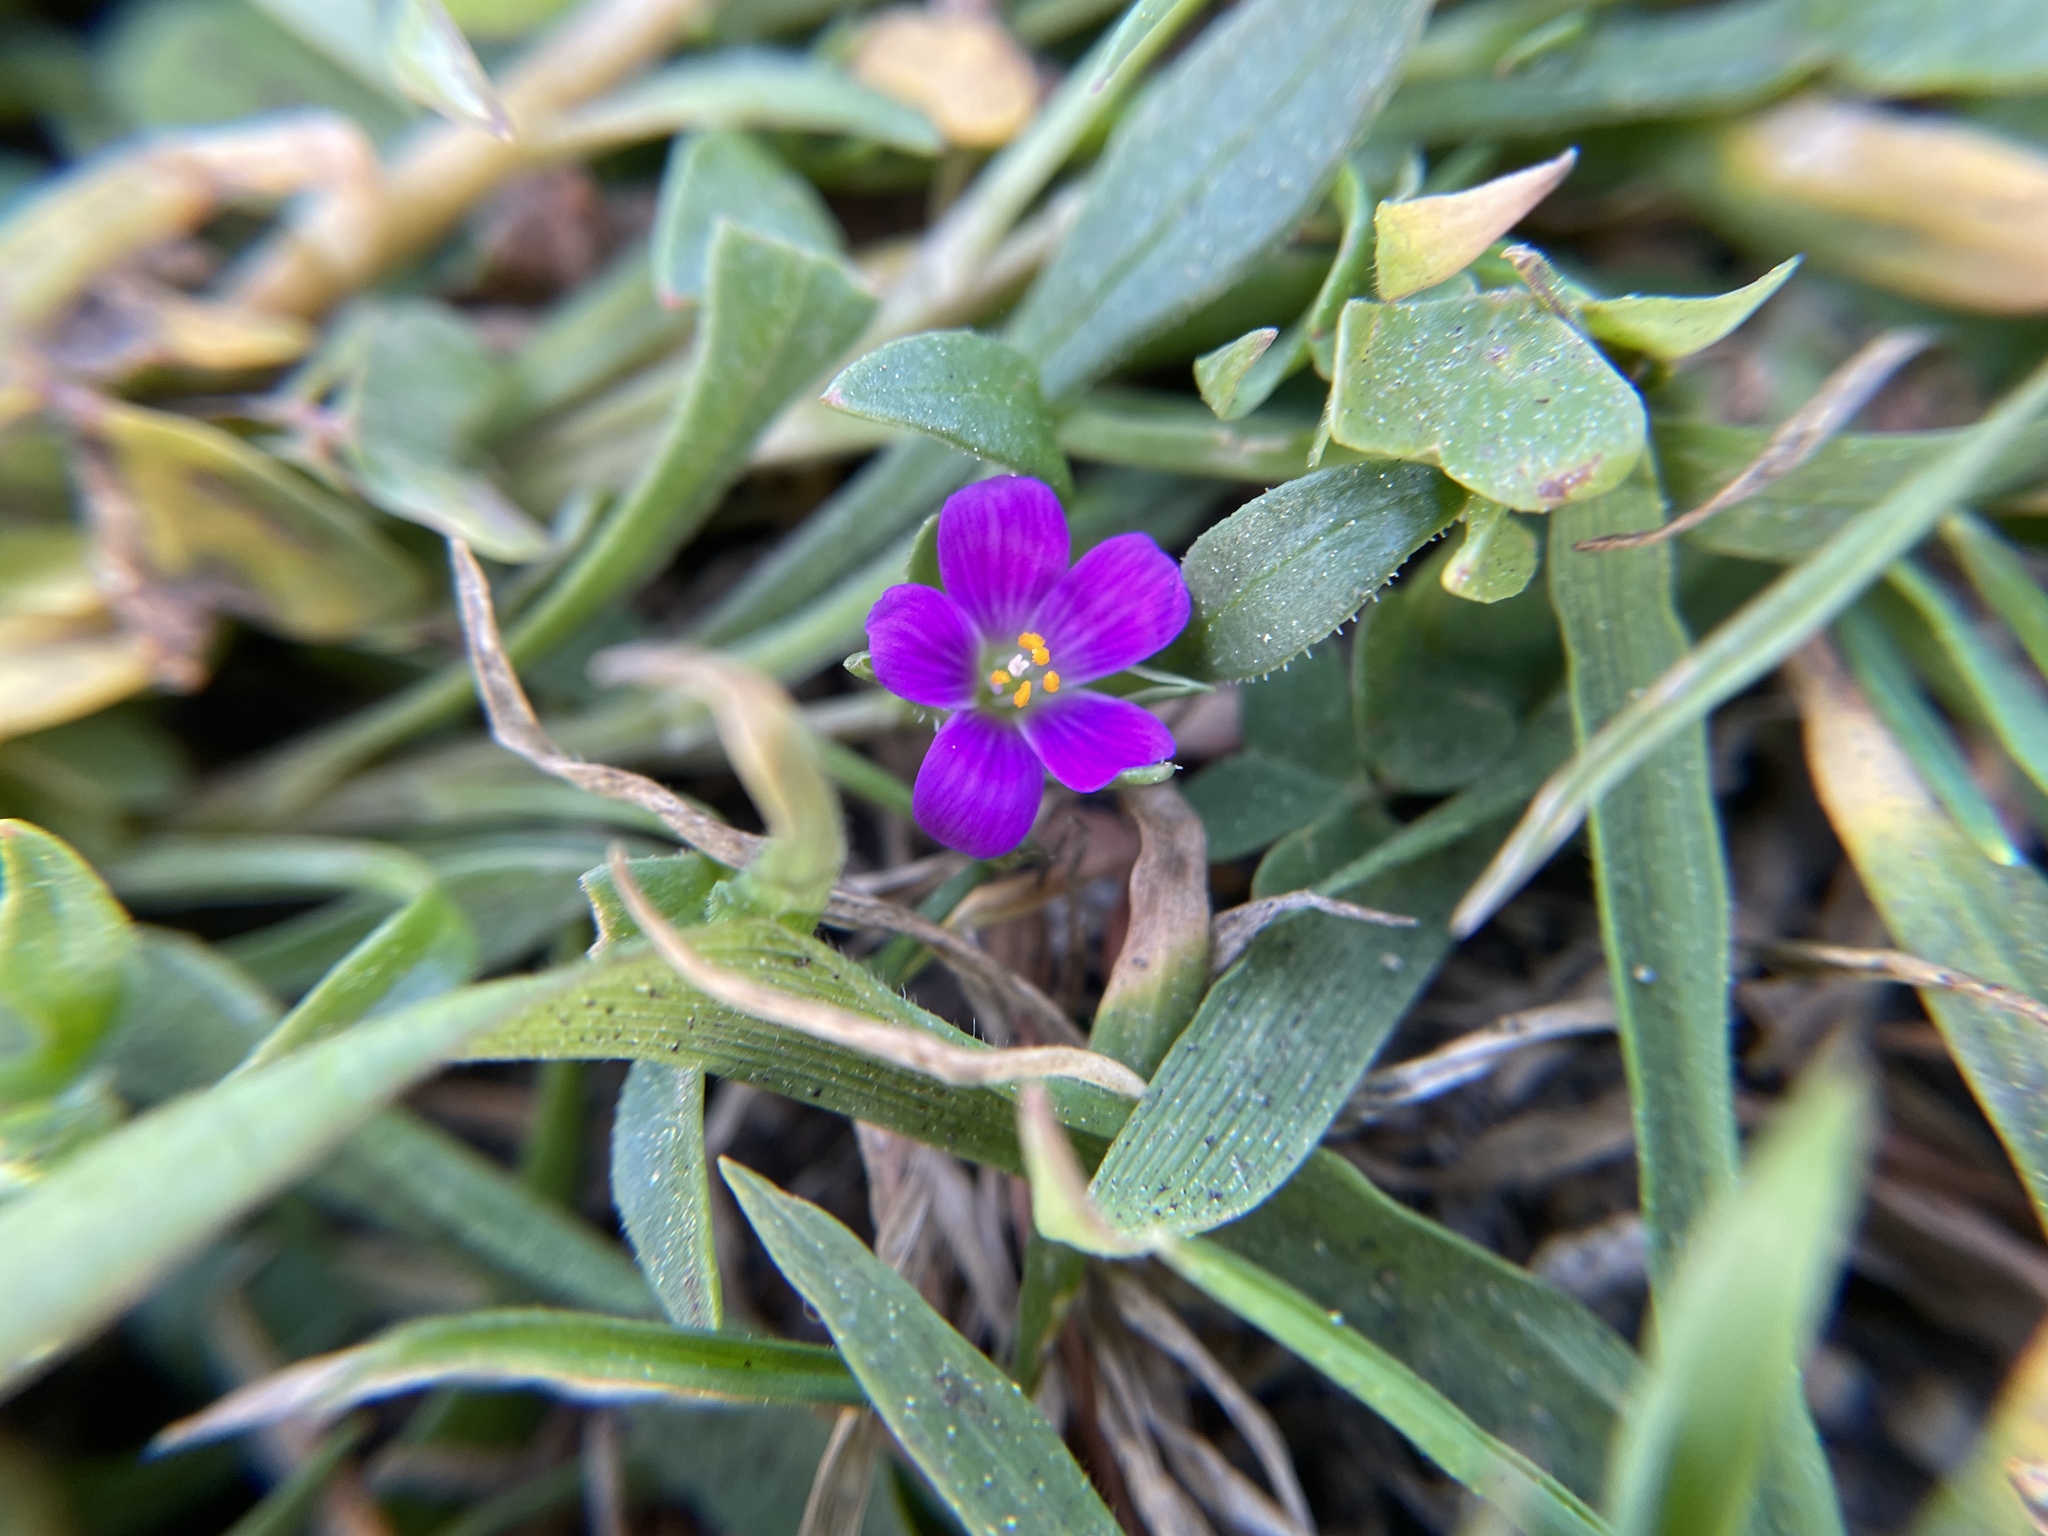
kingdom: Plantae
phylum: Tracheophyta
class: Magnoliopsida
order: Caryophyllales
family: Montiaceae
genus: Calandrinia
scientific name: Calandrinia menziesii
